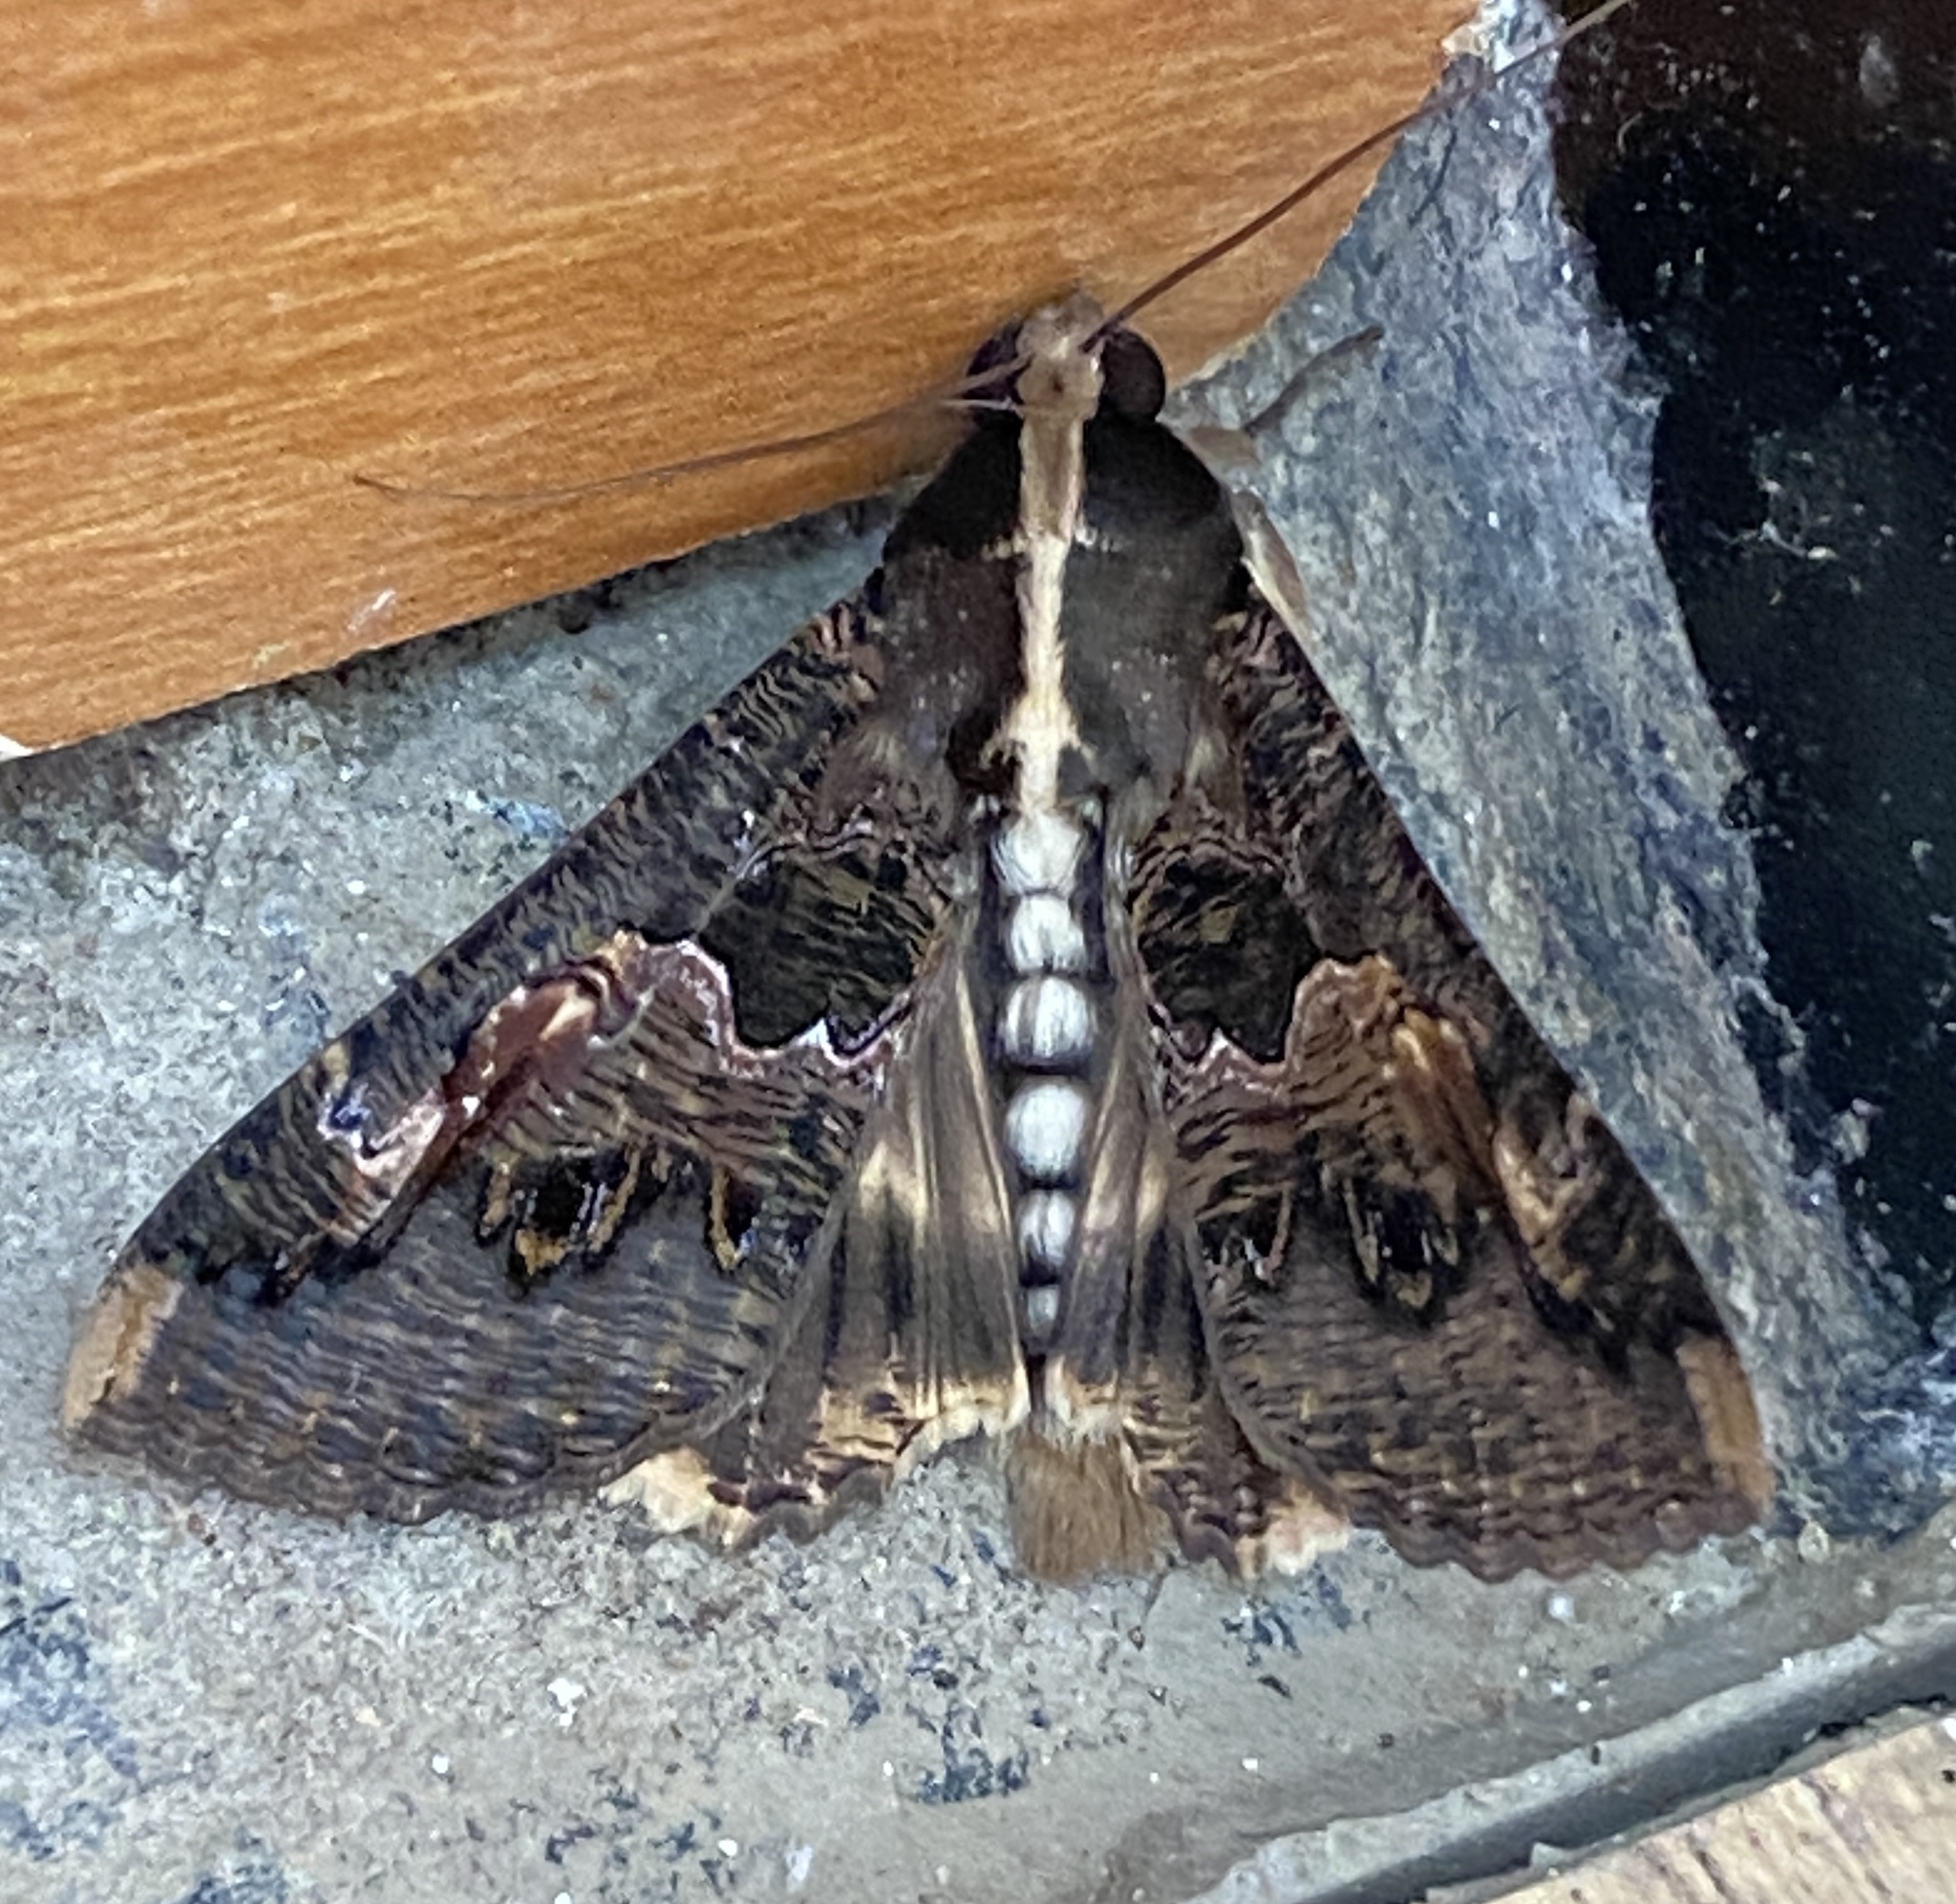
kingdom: Animalia
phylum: Arthropoda
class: Insecta
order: Lepidoptera
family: Erebidae
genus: Sphingomorpha
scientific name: Sphingomorpha chlorea
